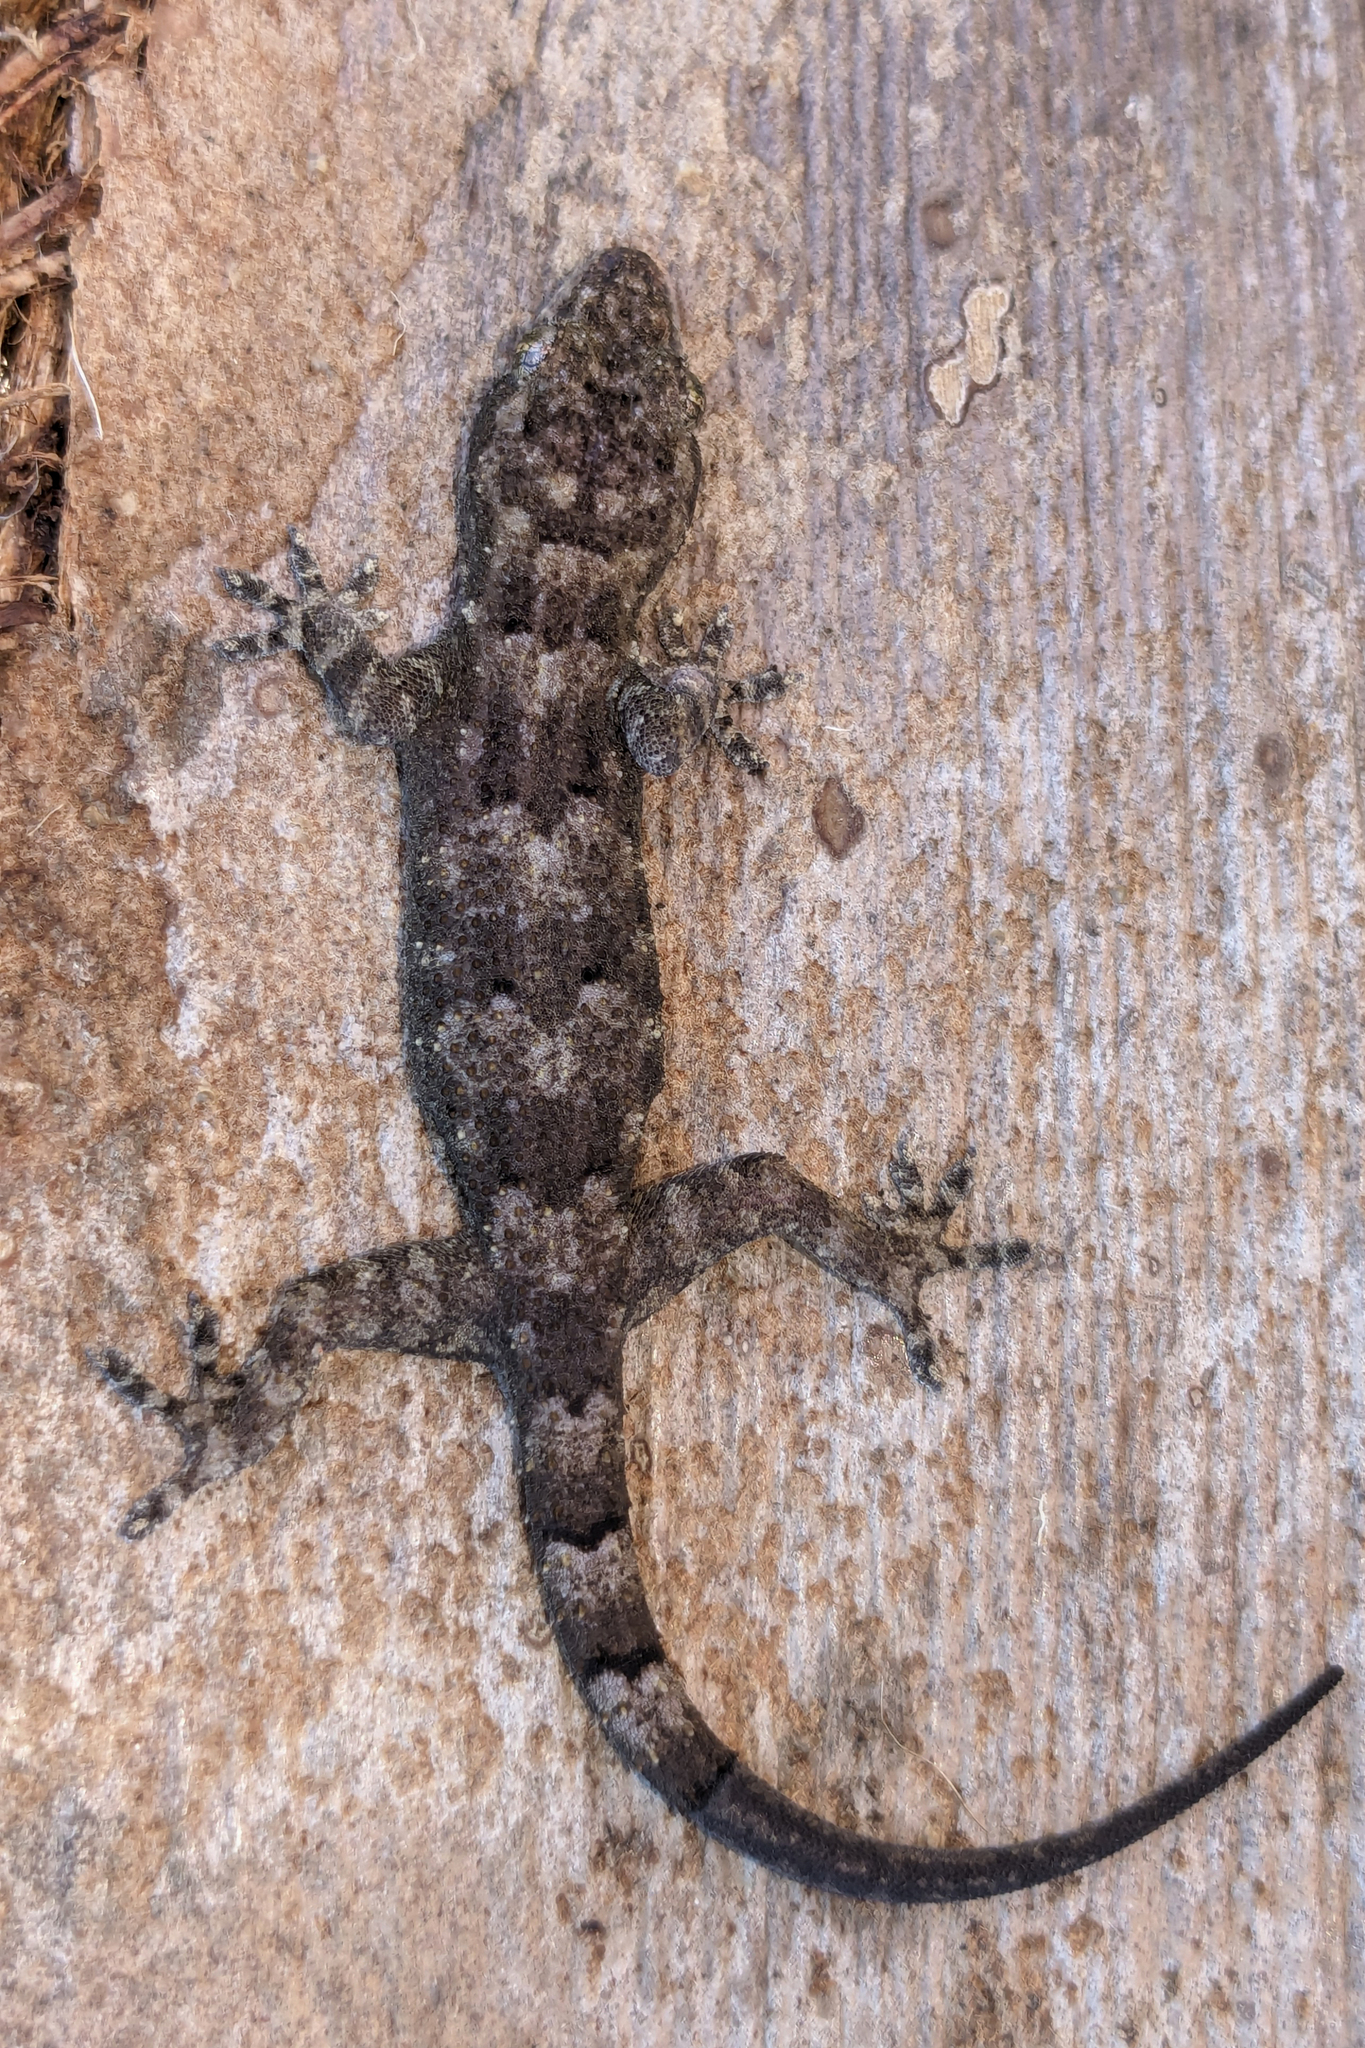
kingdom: Animalia
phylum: Chordata
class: Squamata
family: Gekkonidae
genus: Hemidactylus
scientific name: Hemidactylus mabouia
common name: House gecko
